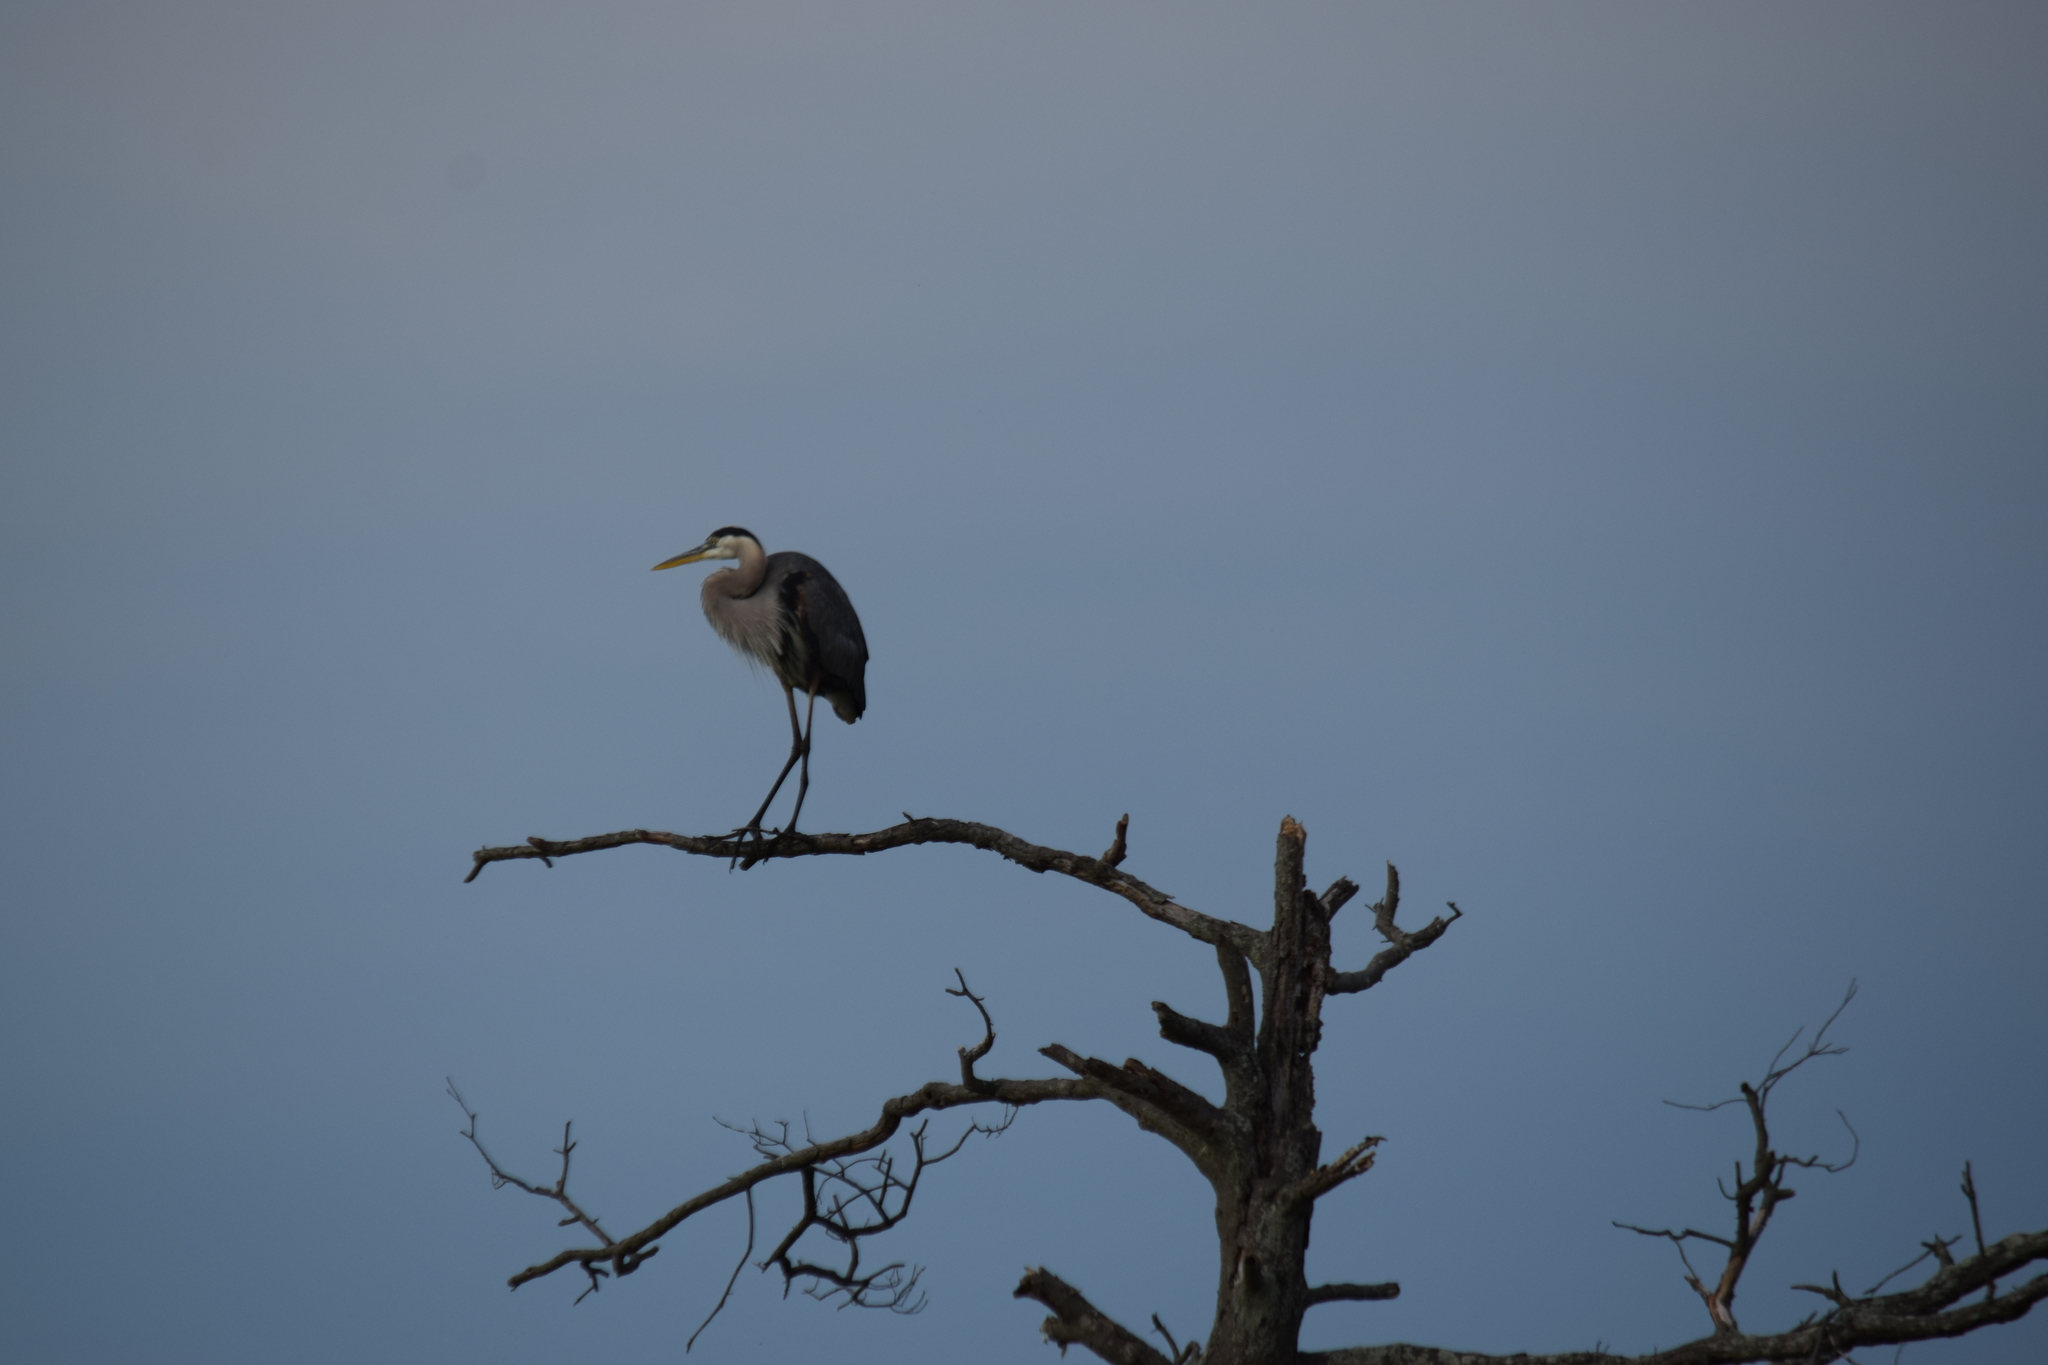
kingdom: Animalia
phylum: Chordata
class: Aves
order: Pelecaniformes
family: Ardeidae
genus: Ardea
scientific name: Ardea herodias
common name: Great blue heron
